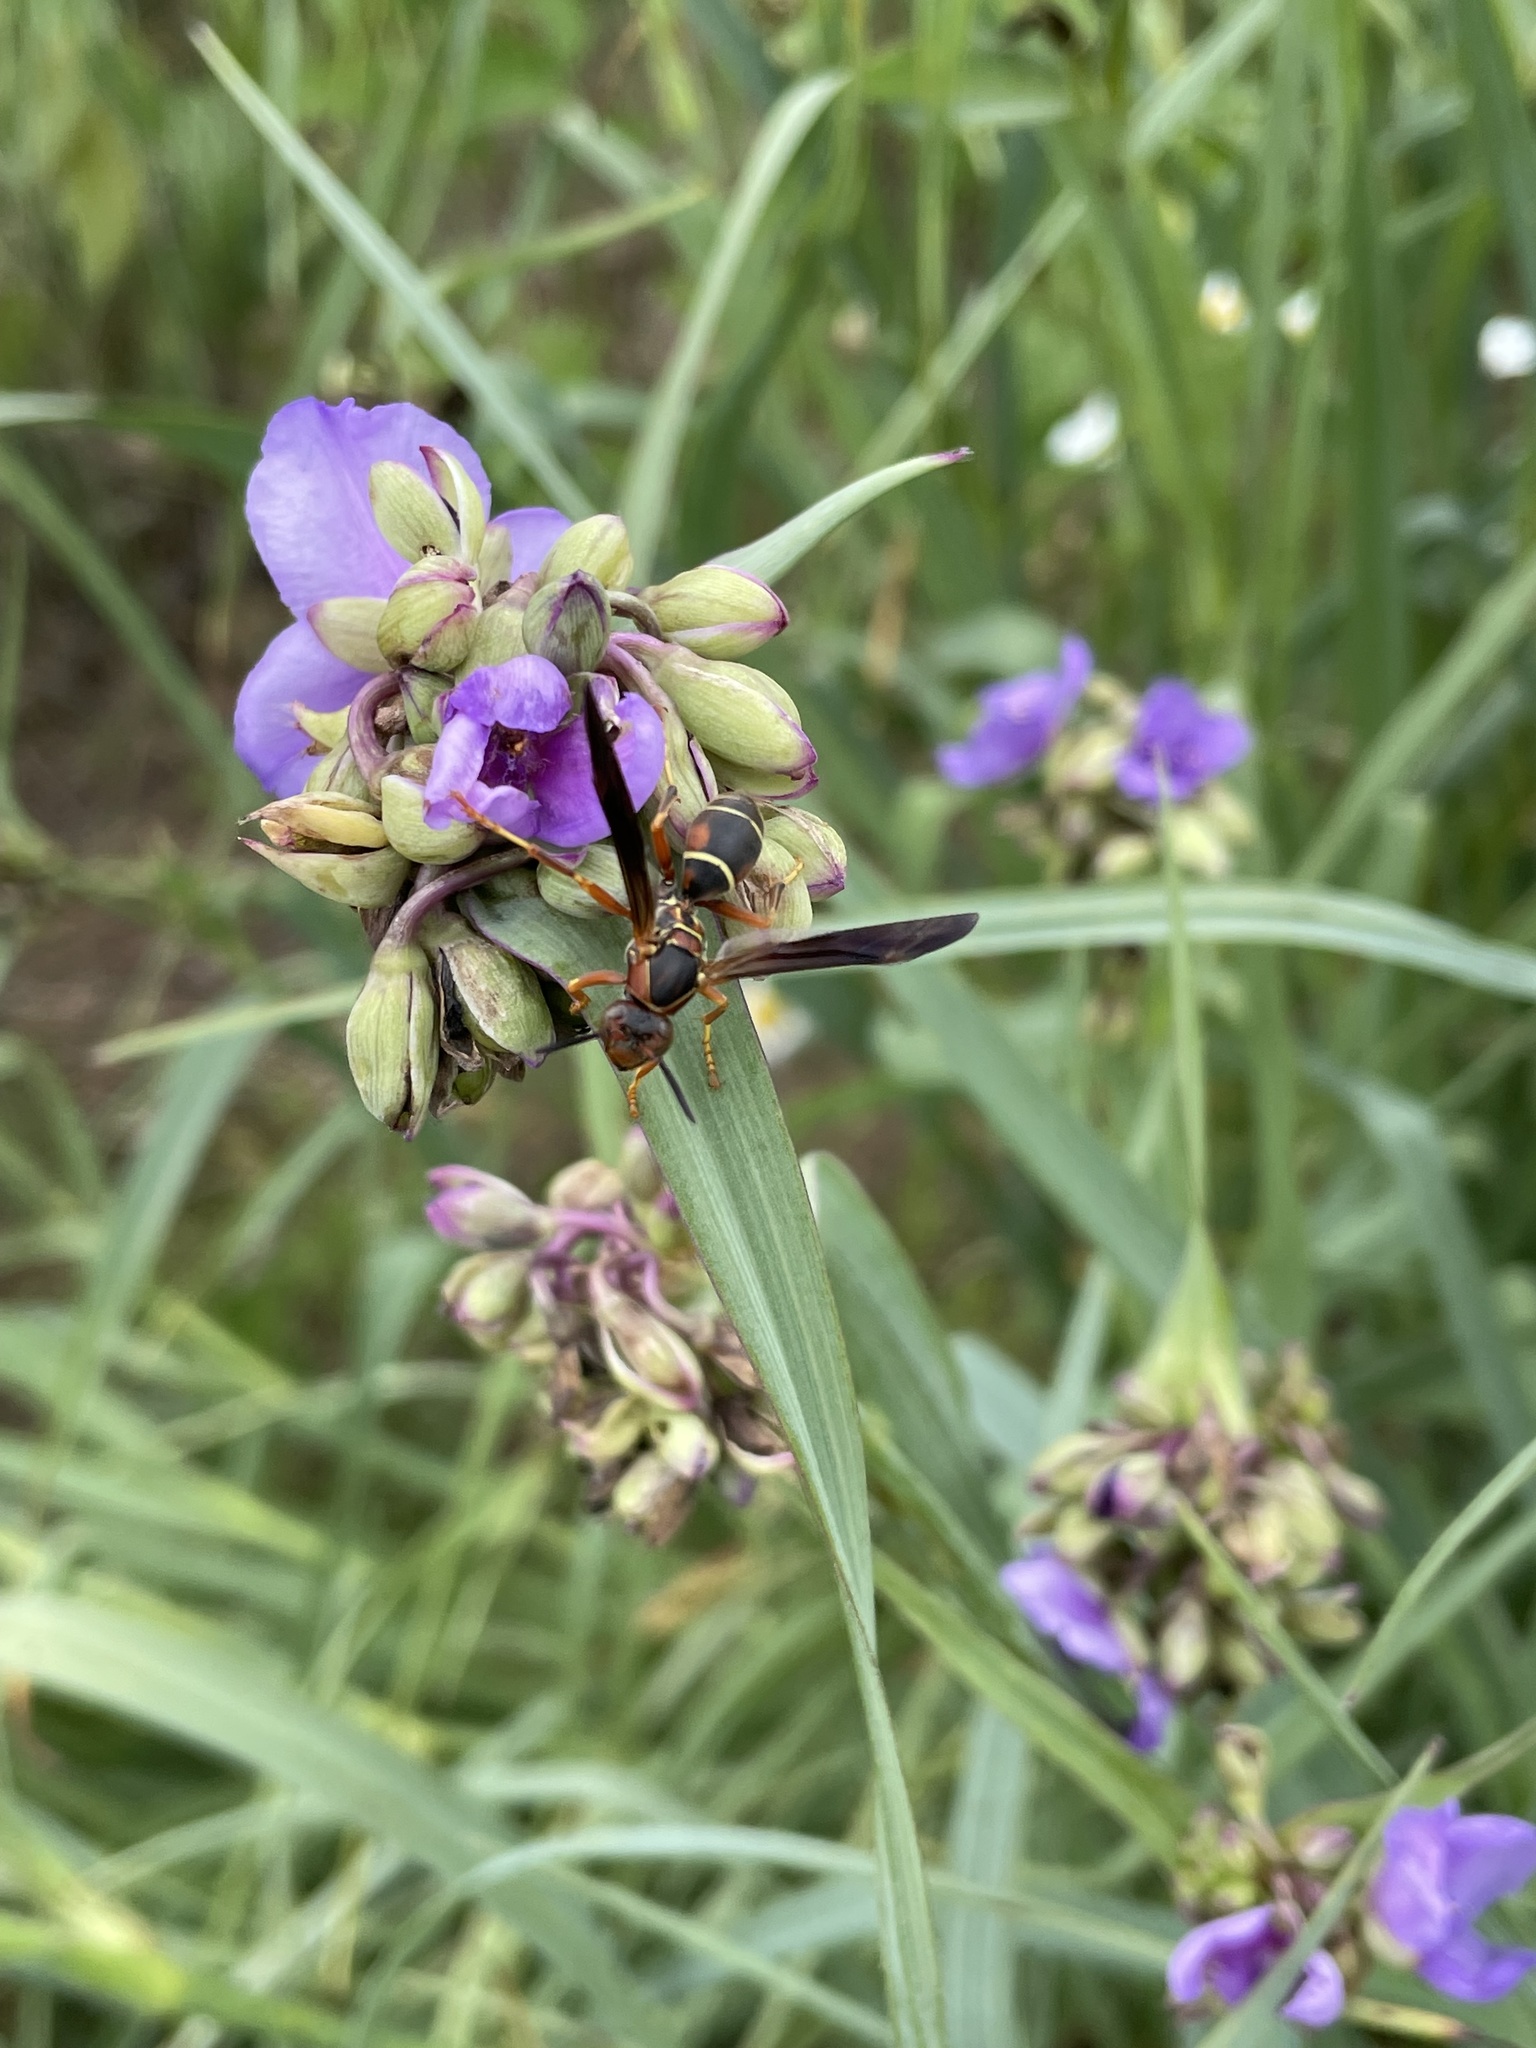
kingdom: Animalia
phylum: Arthropoda
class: Insecta
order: Hymenoptera
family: Eumenidae
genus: Polistes
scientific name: Polistes fuscatus
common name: Dark paper wasp
